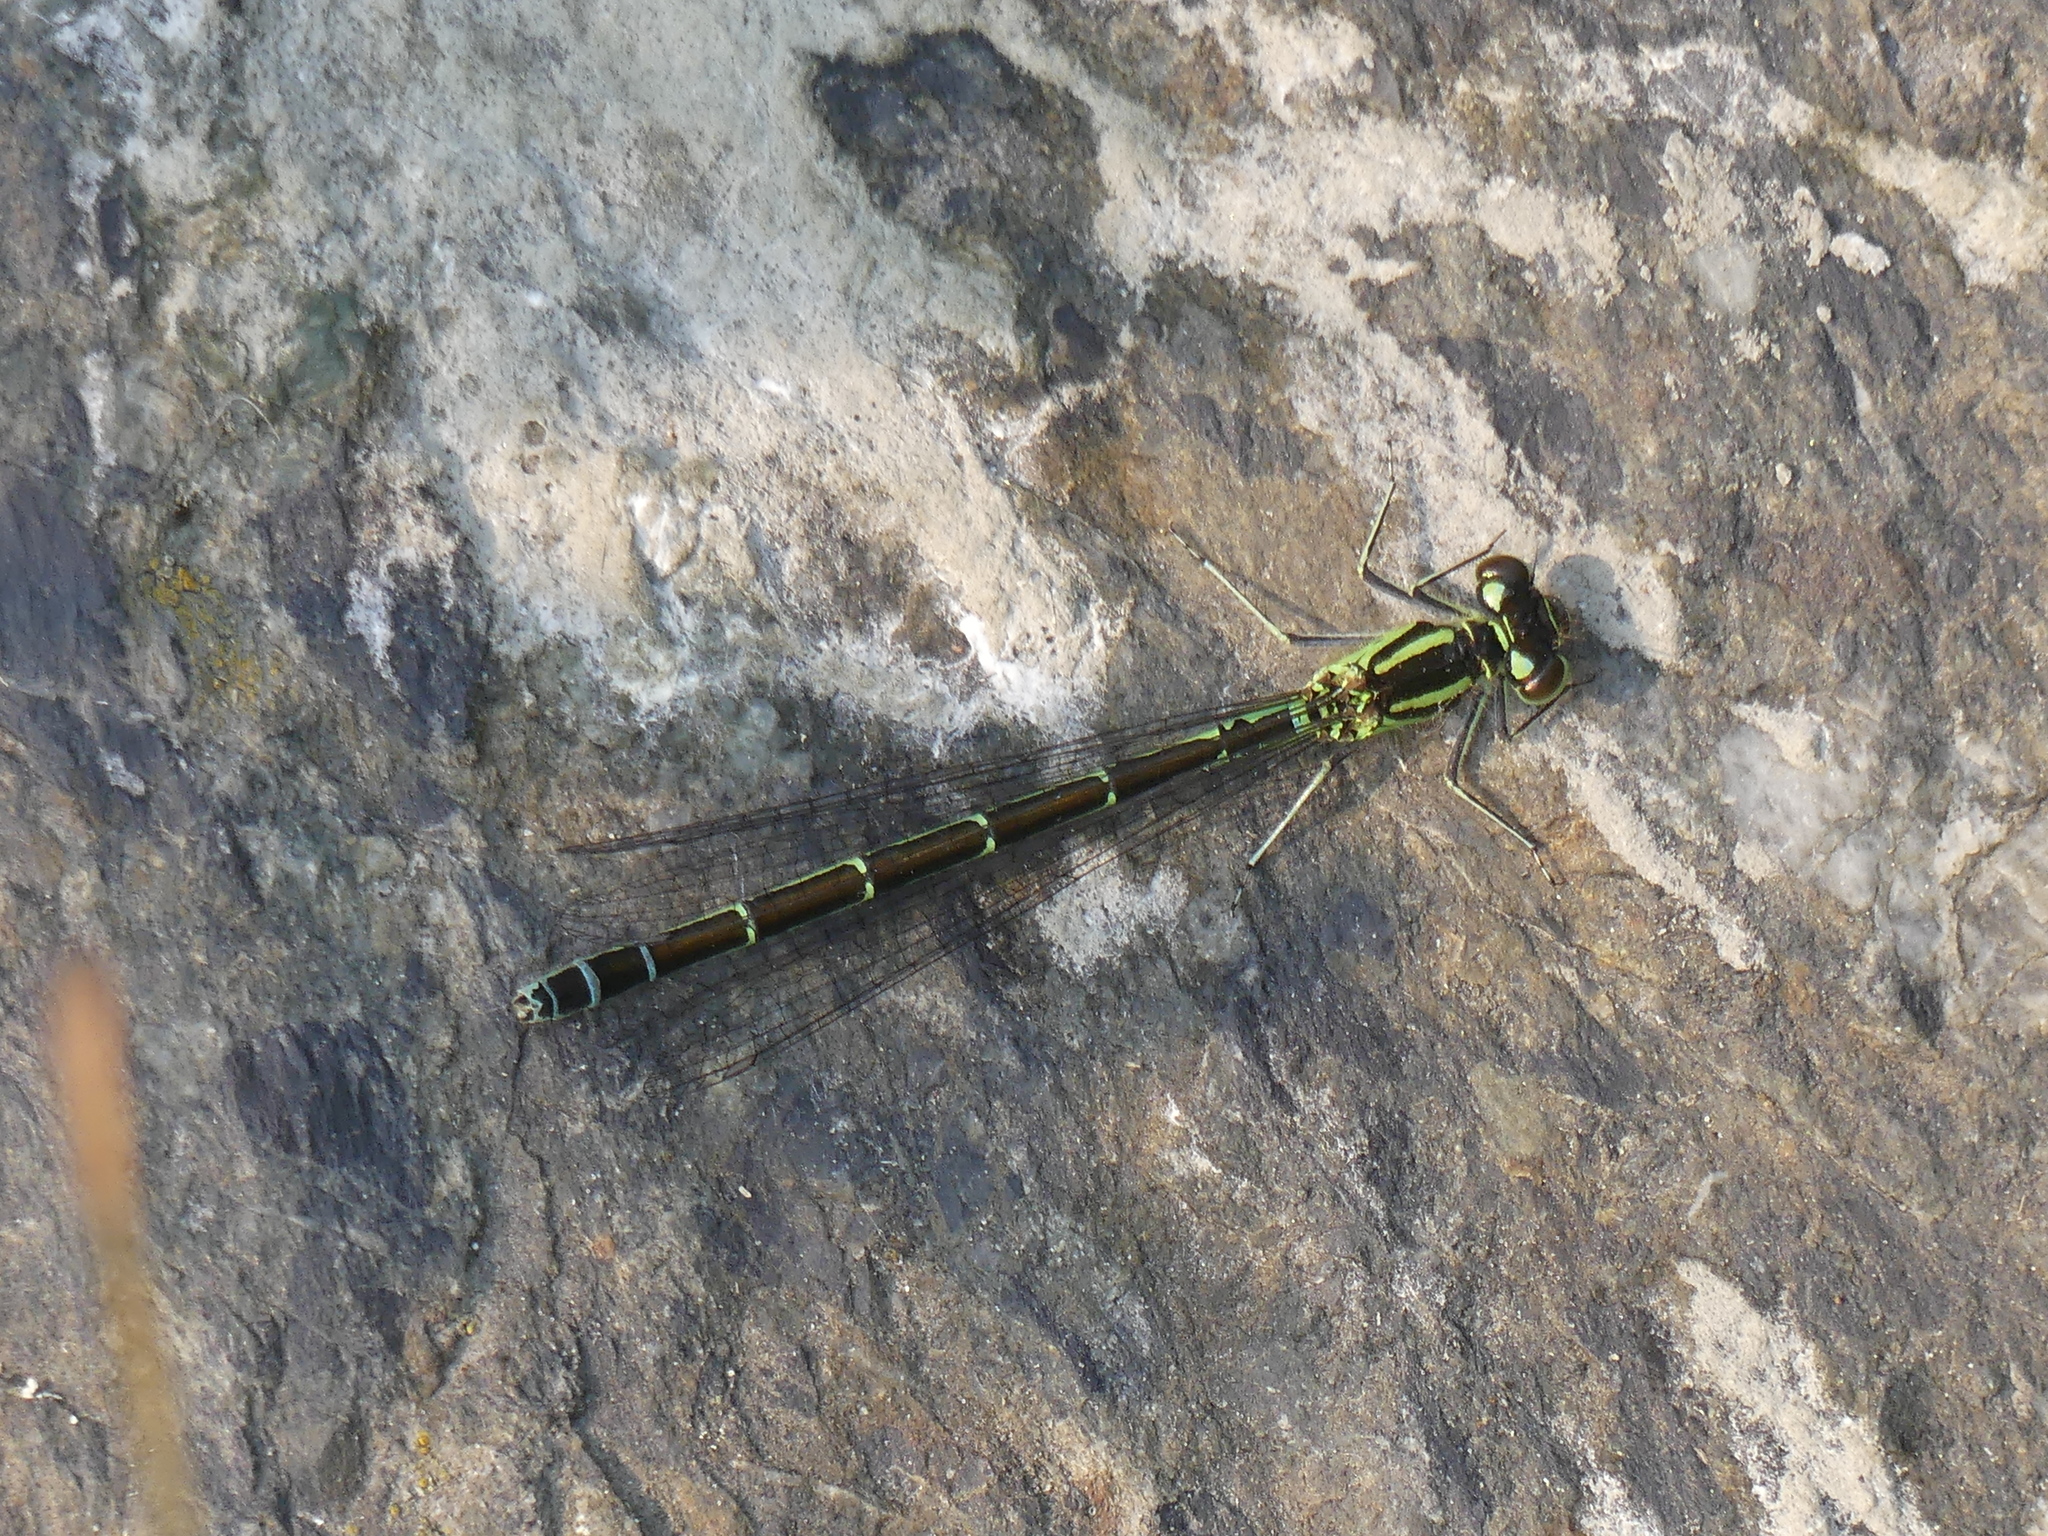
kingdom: Animalia
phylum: Arthropoda
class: Insecta
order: Odonata
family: Coenagrionidae
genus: Coenagrion
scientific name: Coenagrion resolutum
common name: Taiga bluet
